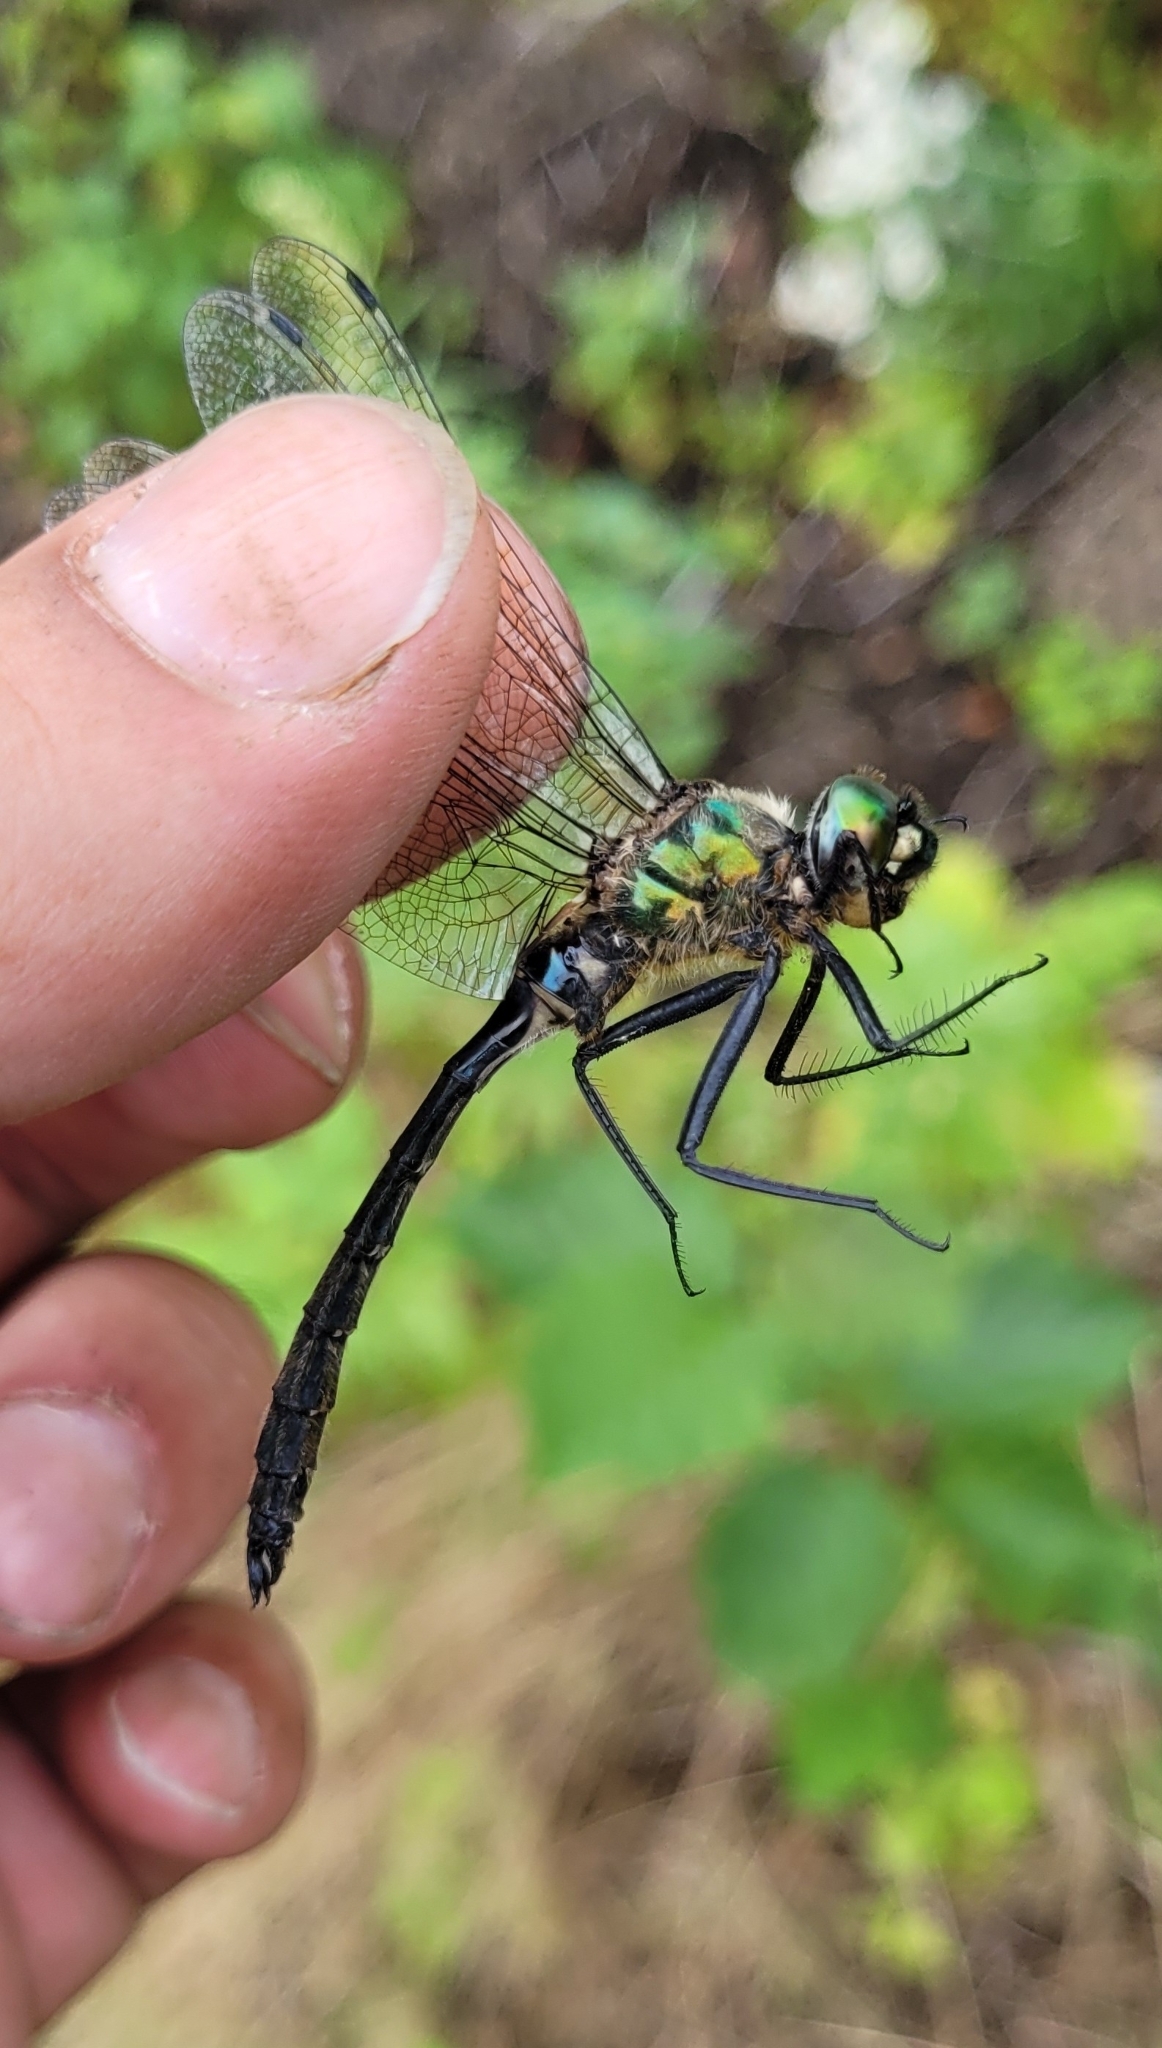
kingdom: Animalia
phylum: Arthropoda
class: Insecta
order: Odonata
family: Corduliidae
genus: Somatochlora
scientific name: Somatochlora uchidai
